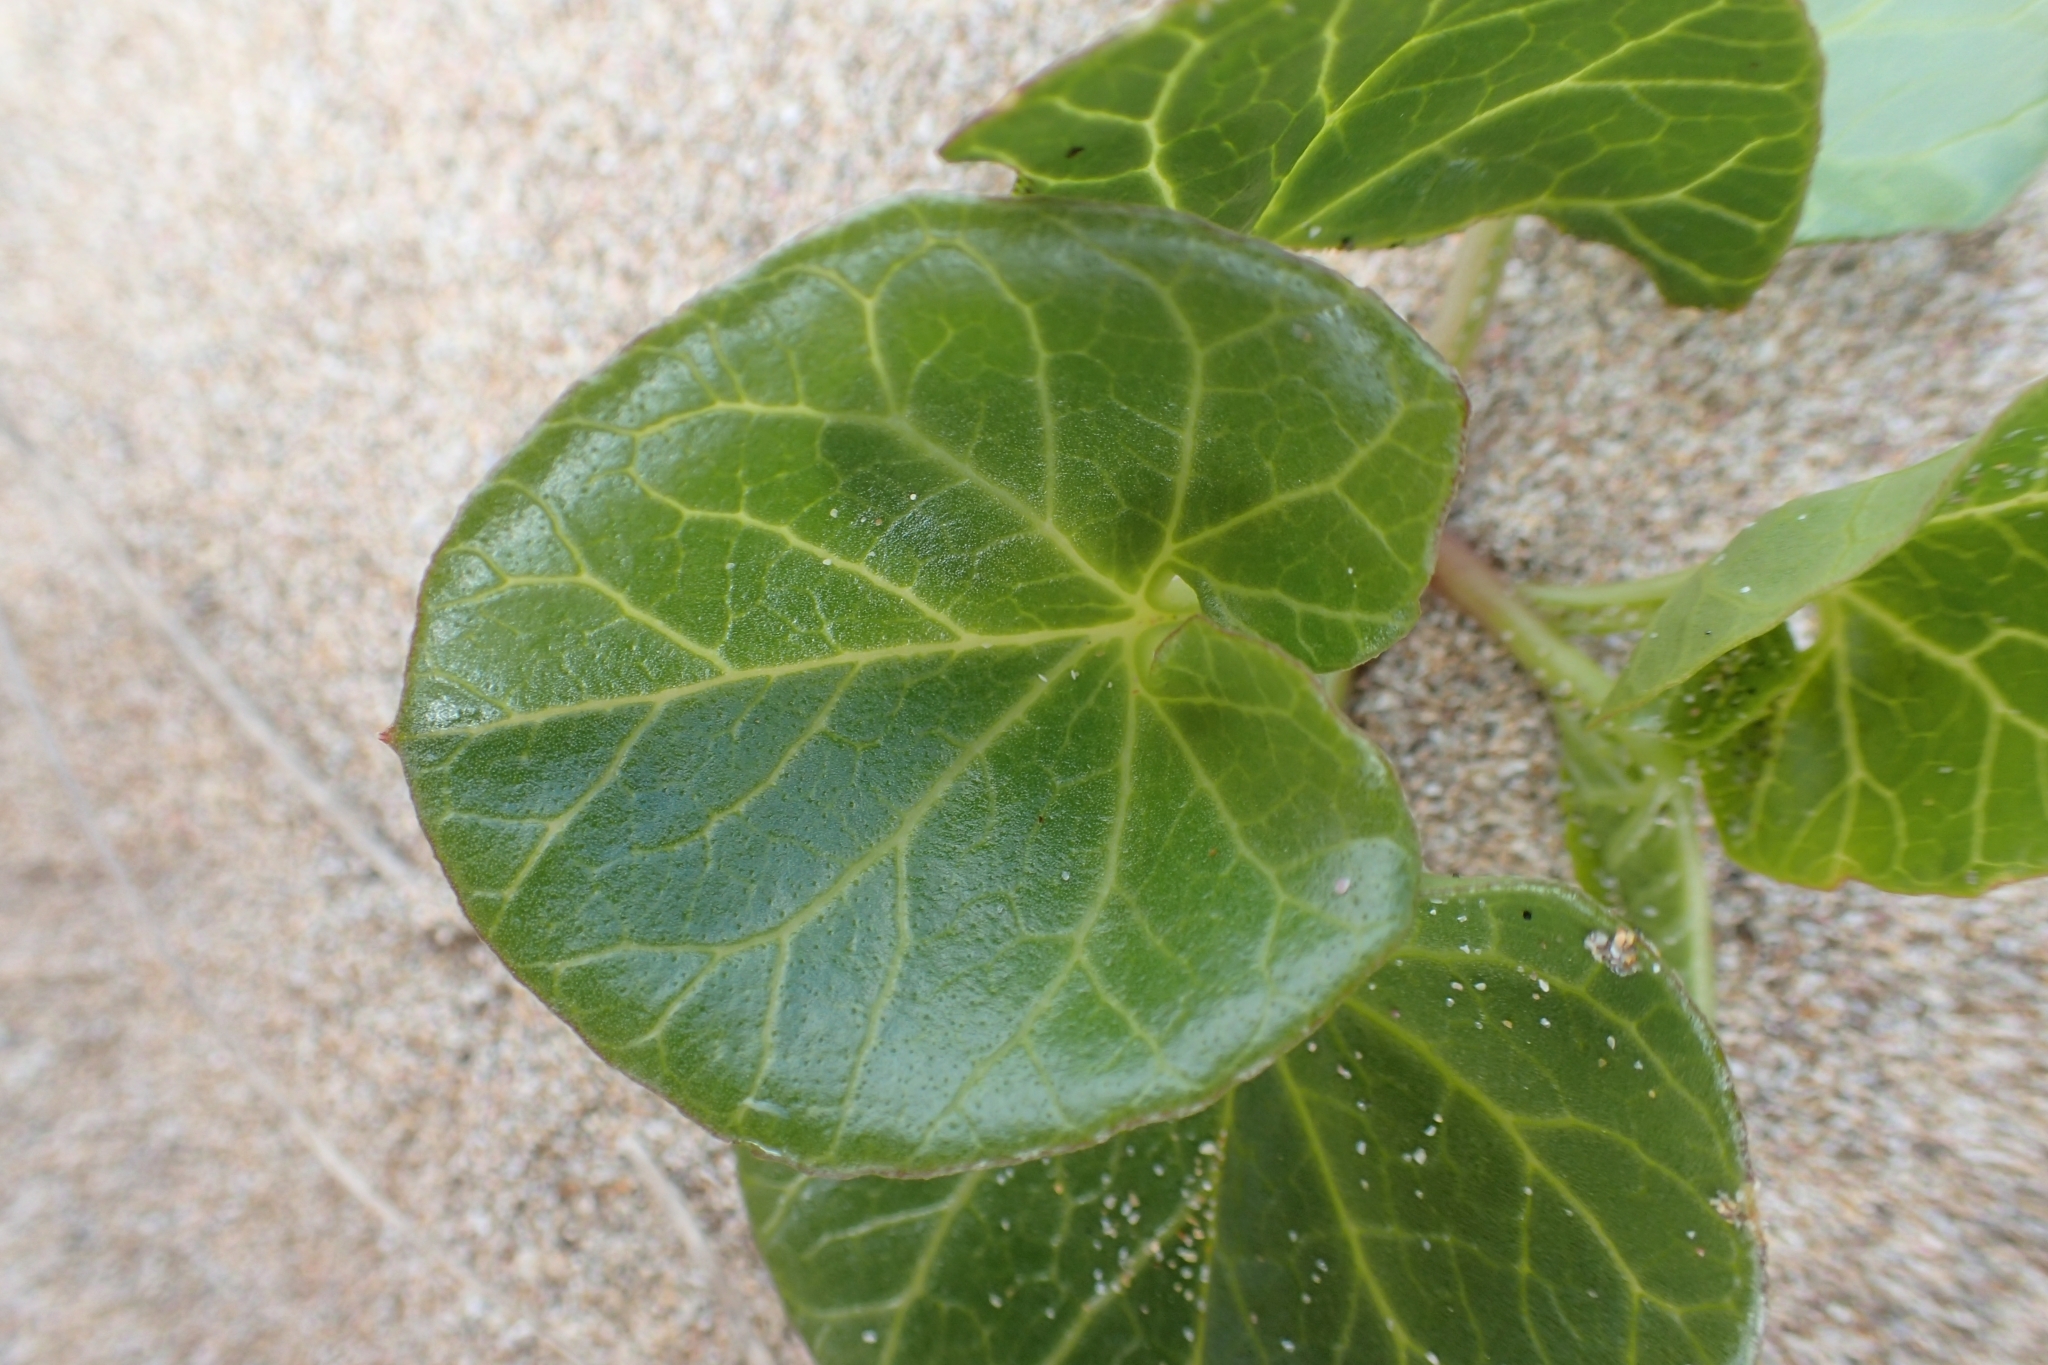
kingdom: Plantae
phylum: Tracheophyta
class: Magnoliopsida
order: Solanales
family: Convolvulaceae
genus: Calystegia
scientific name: Calystegia soldanella
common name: Sea bindweed
